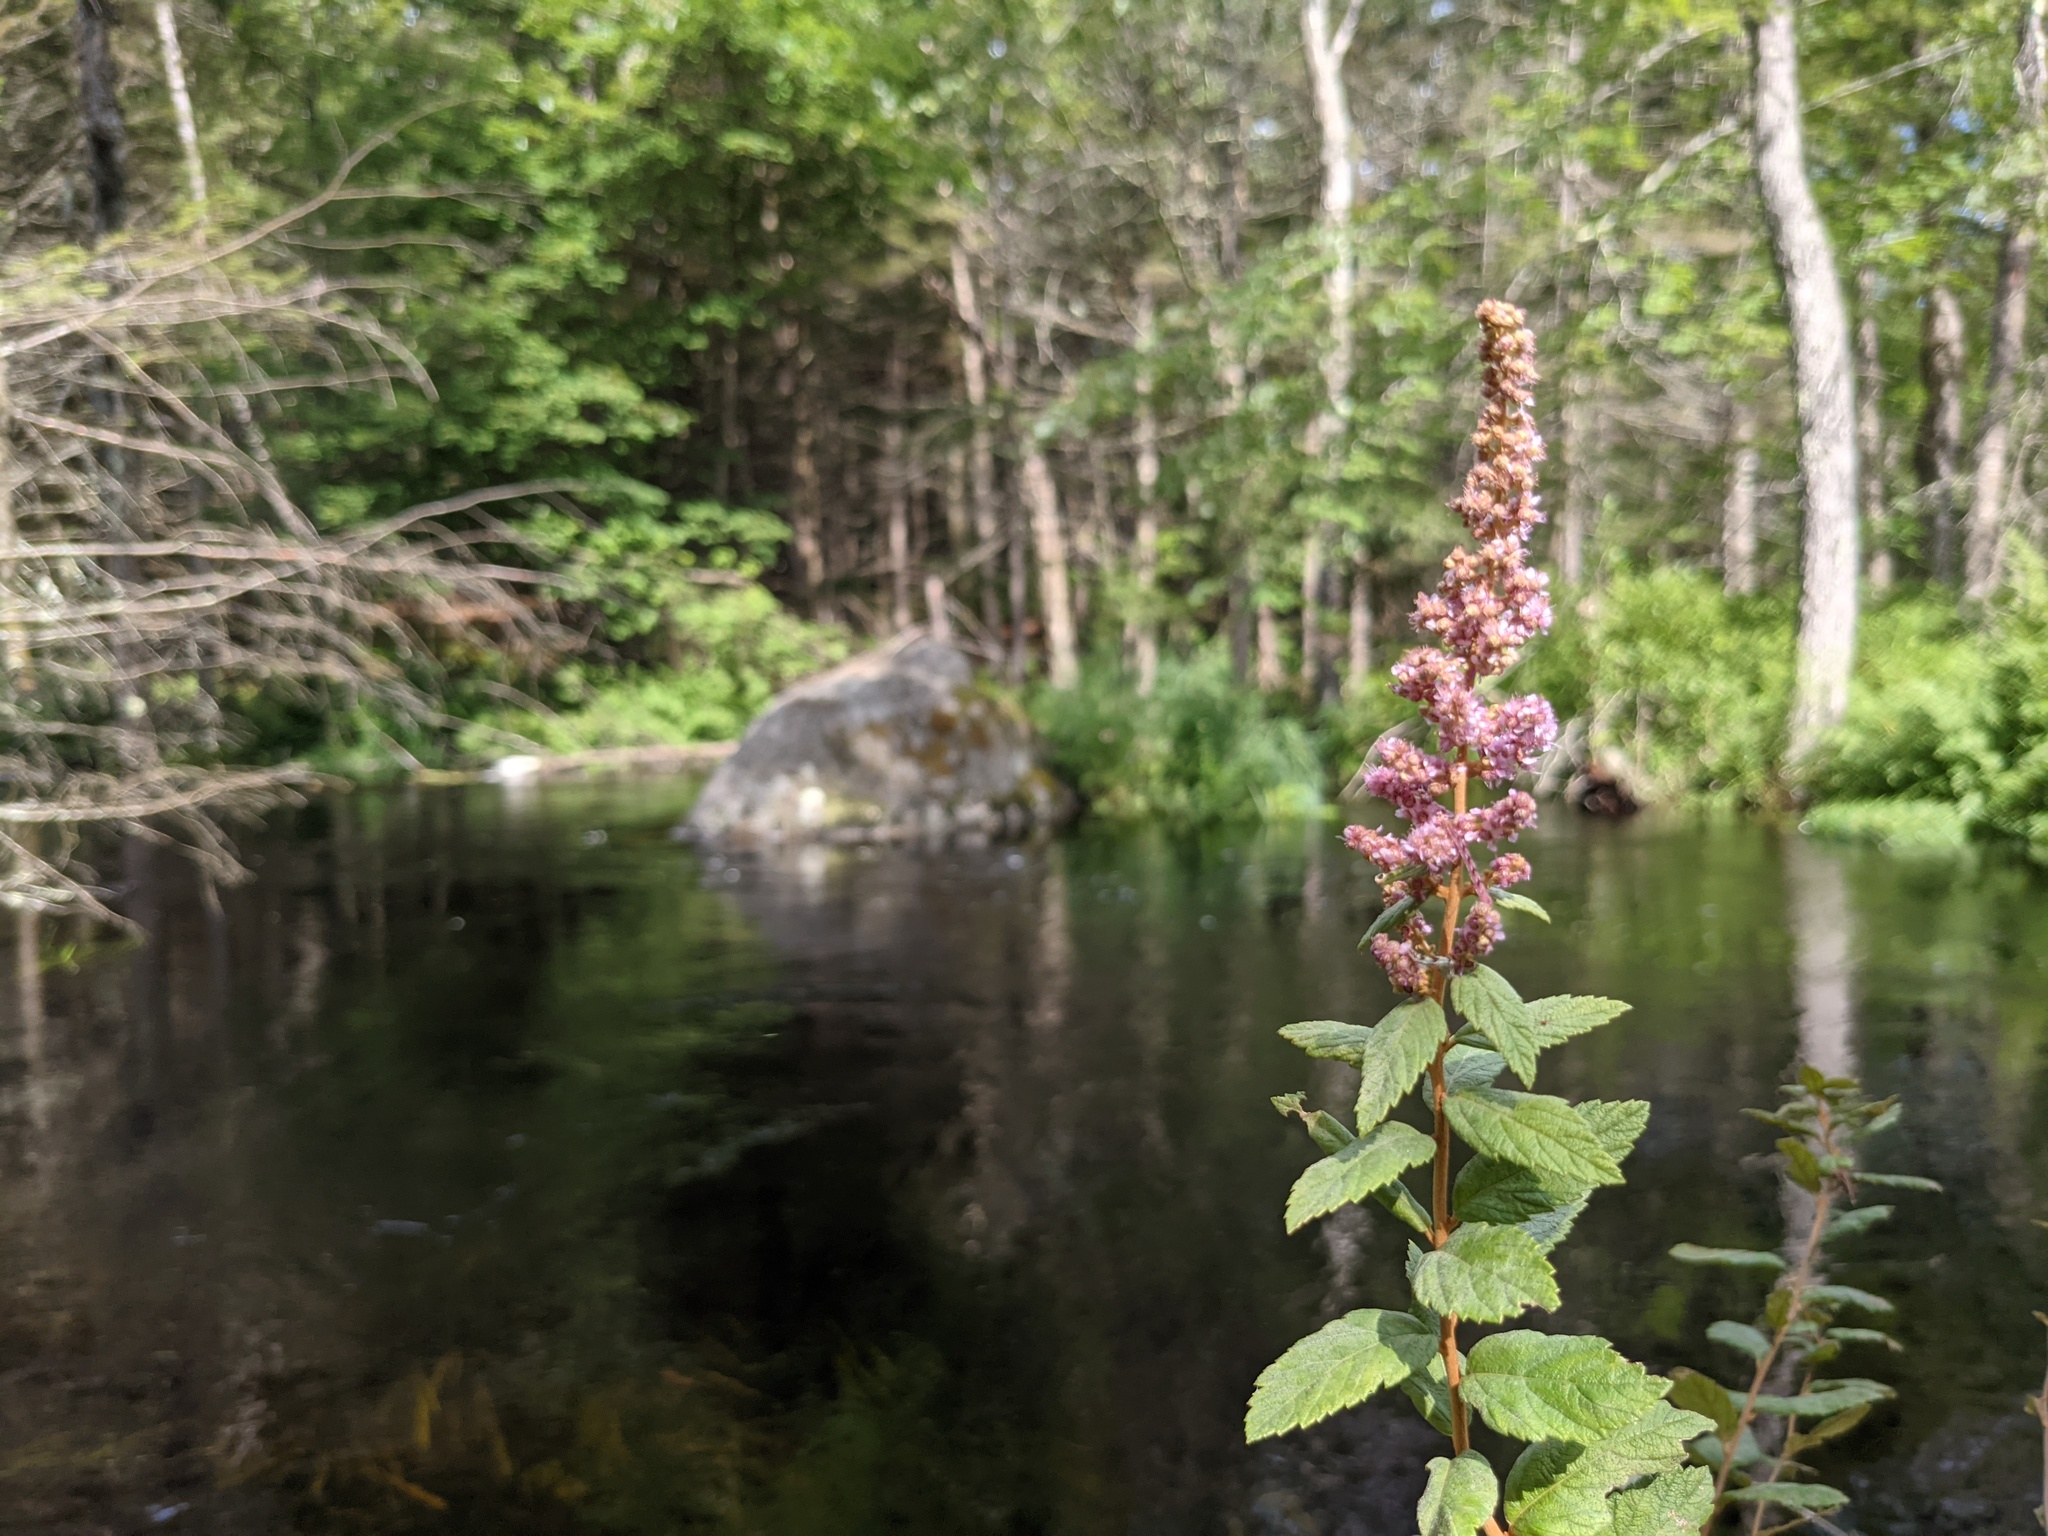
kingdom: Plantae
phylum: Tracheophyta
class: Magnoliopsida
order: Rosales
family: Rosaceae
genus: Spiraea
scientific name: Spiraea tomentosa
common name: Hardhack
